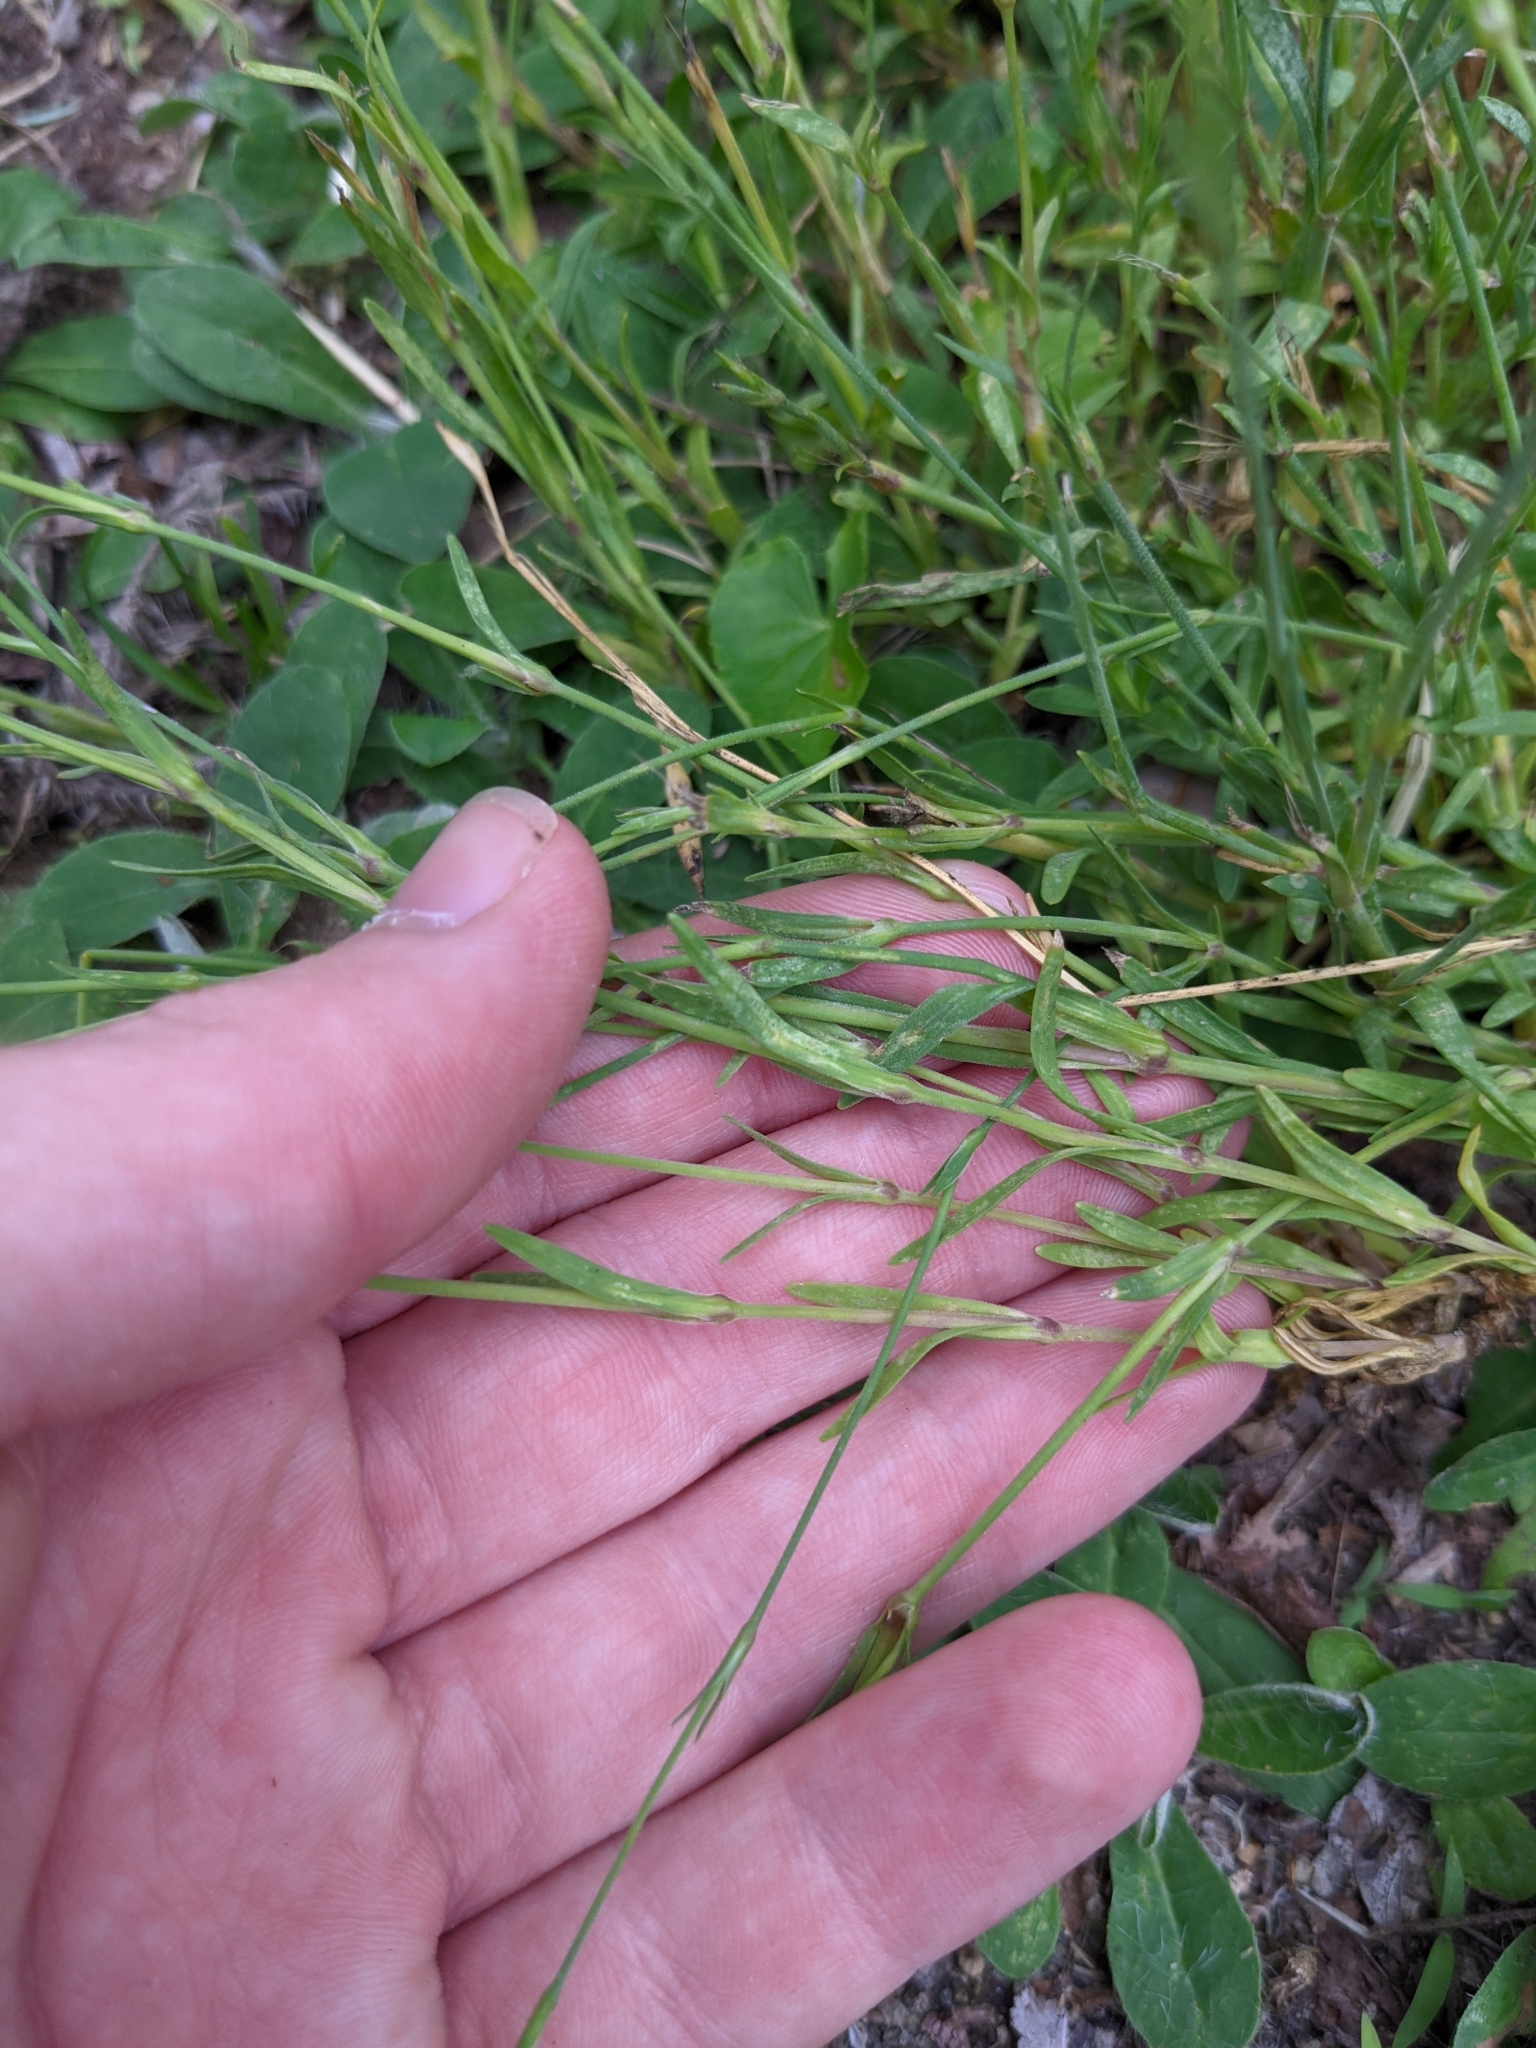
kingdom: Plantae
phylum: Tracheophyta
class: Magnoliopsida
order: Caryophyllales
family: Caryophyllaceae
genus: Dianthus
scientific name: Dianthus deltoides
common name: Maiden pink
